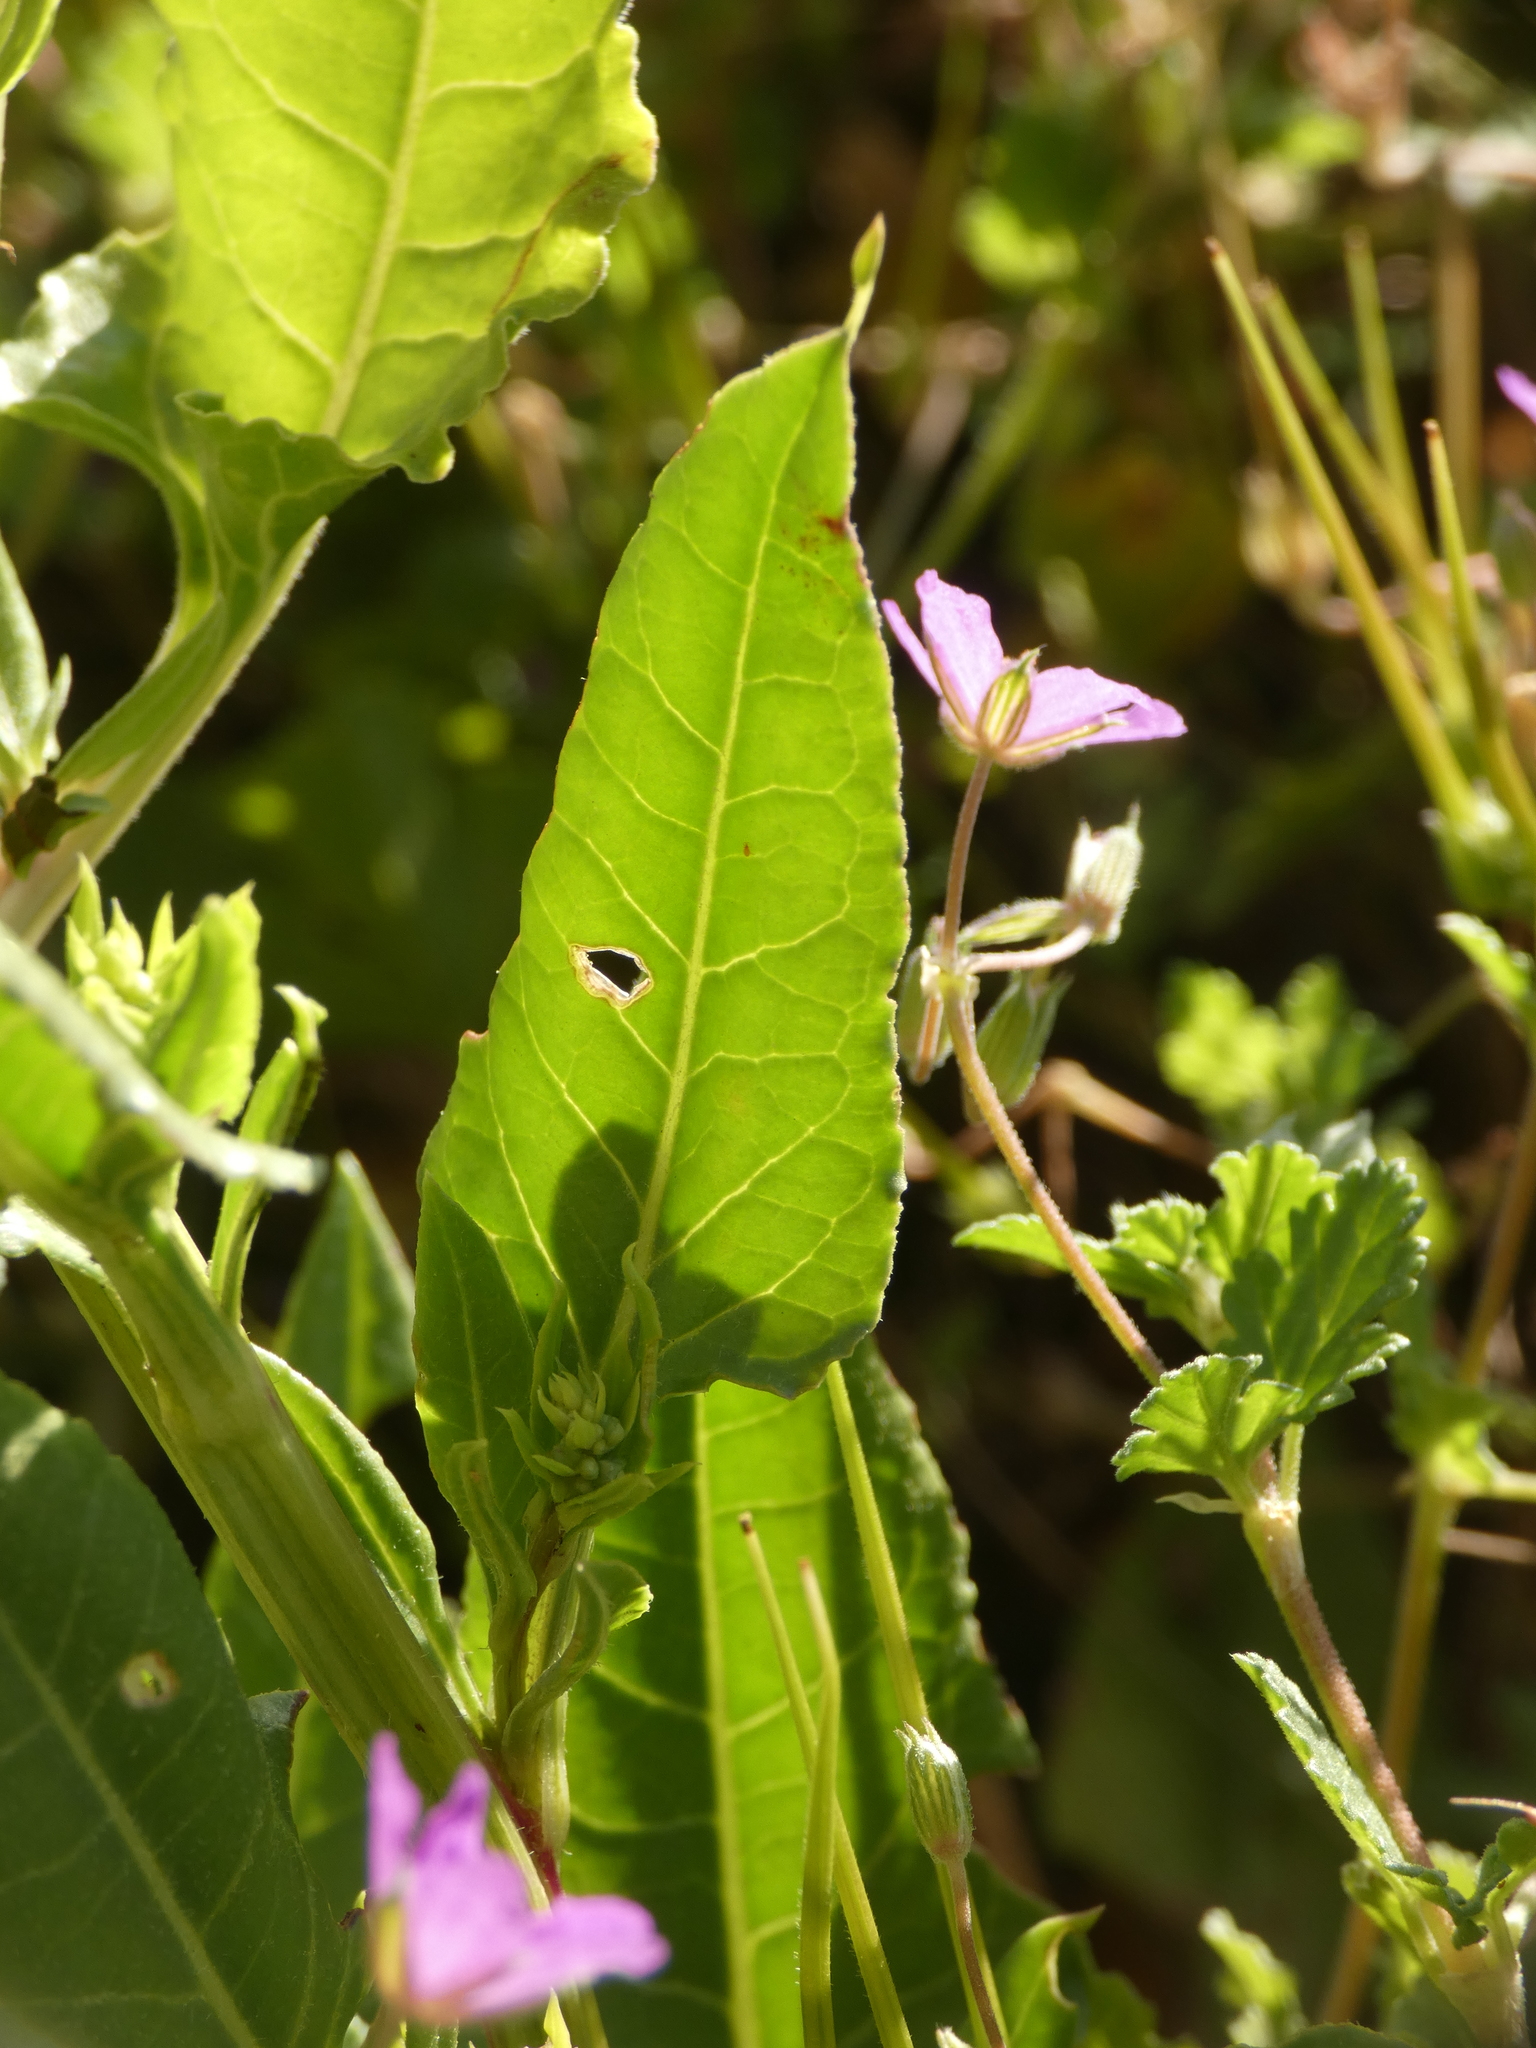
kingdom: Plantae
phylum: Tracheophyta
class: Magnoliopsida
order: Caryophyllales
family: Amaranthaceae
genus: Beta
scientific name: Beta vulgaris
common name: Beet
